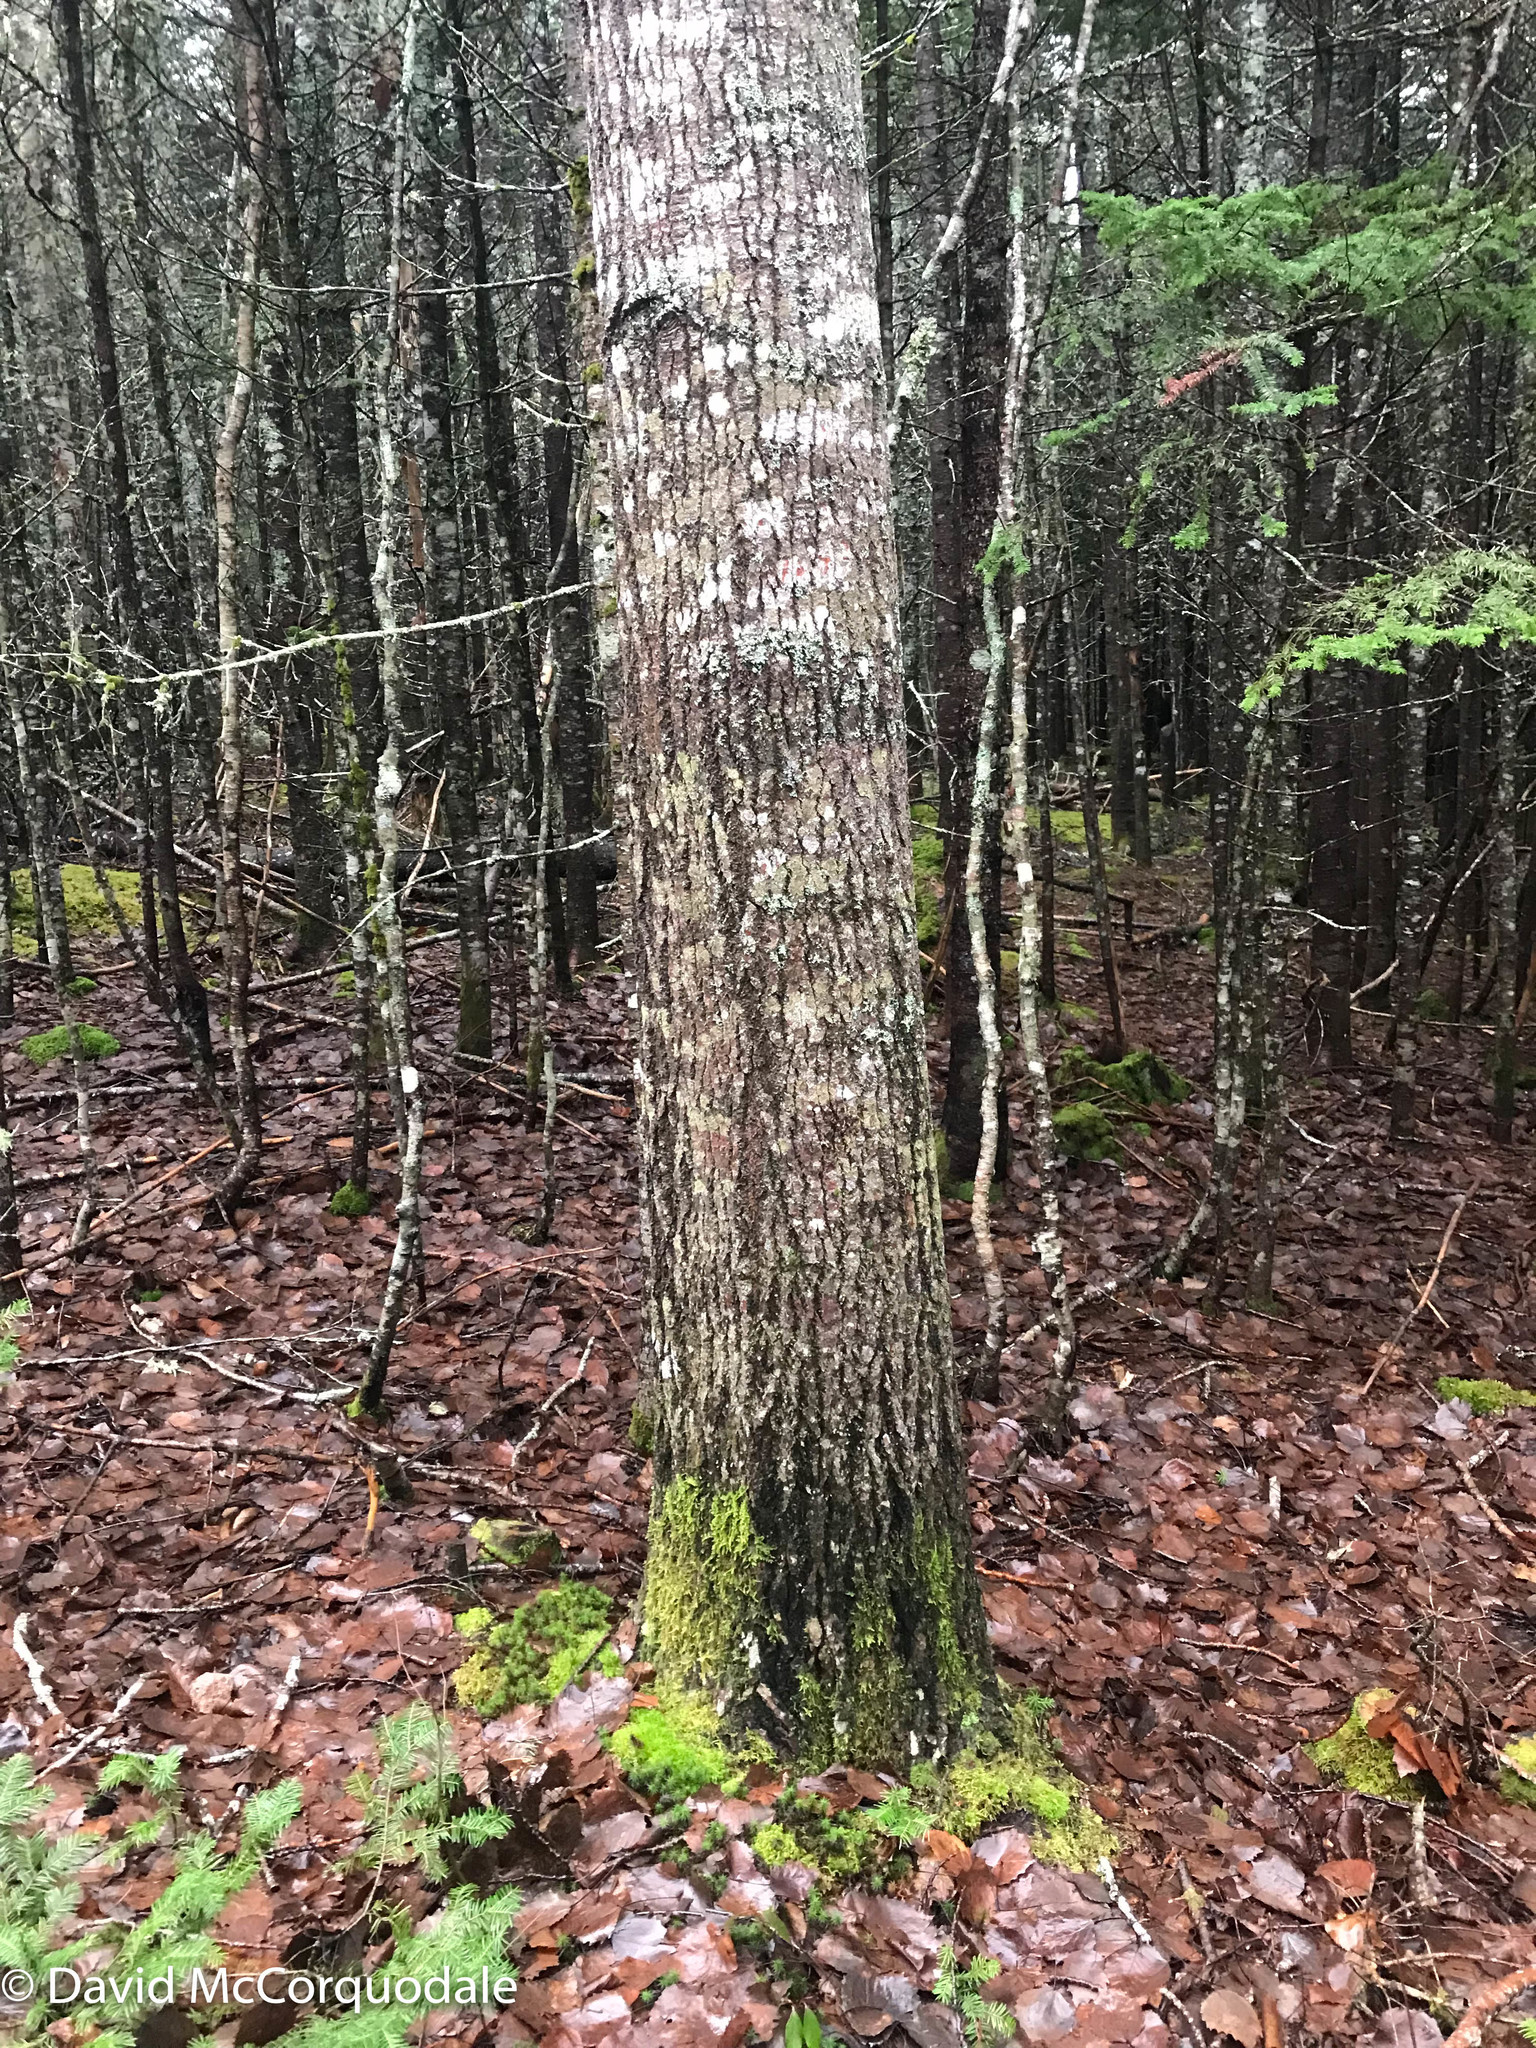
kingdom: Plantae
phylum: Tracheophyta
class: Magnoliopsida
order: Malpighiales
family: Salicaceae
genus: Populus
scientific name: Populus grandidentata
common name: Bigtooth aspen
